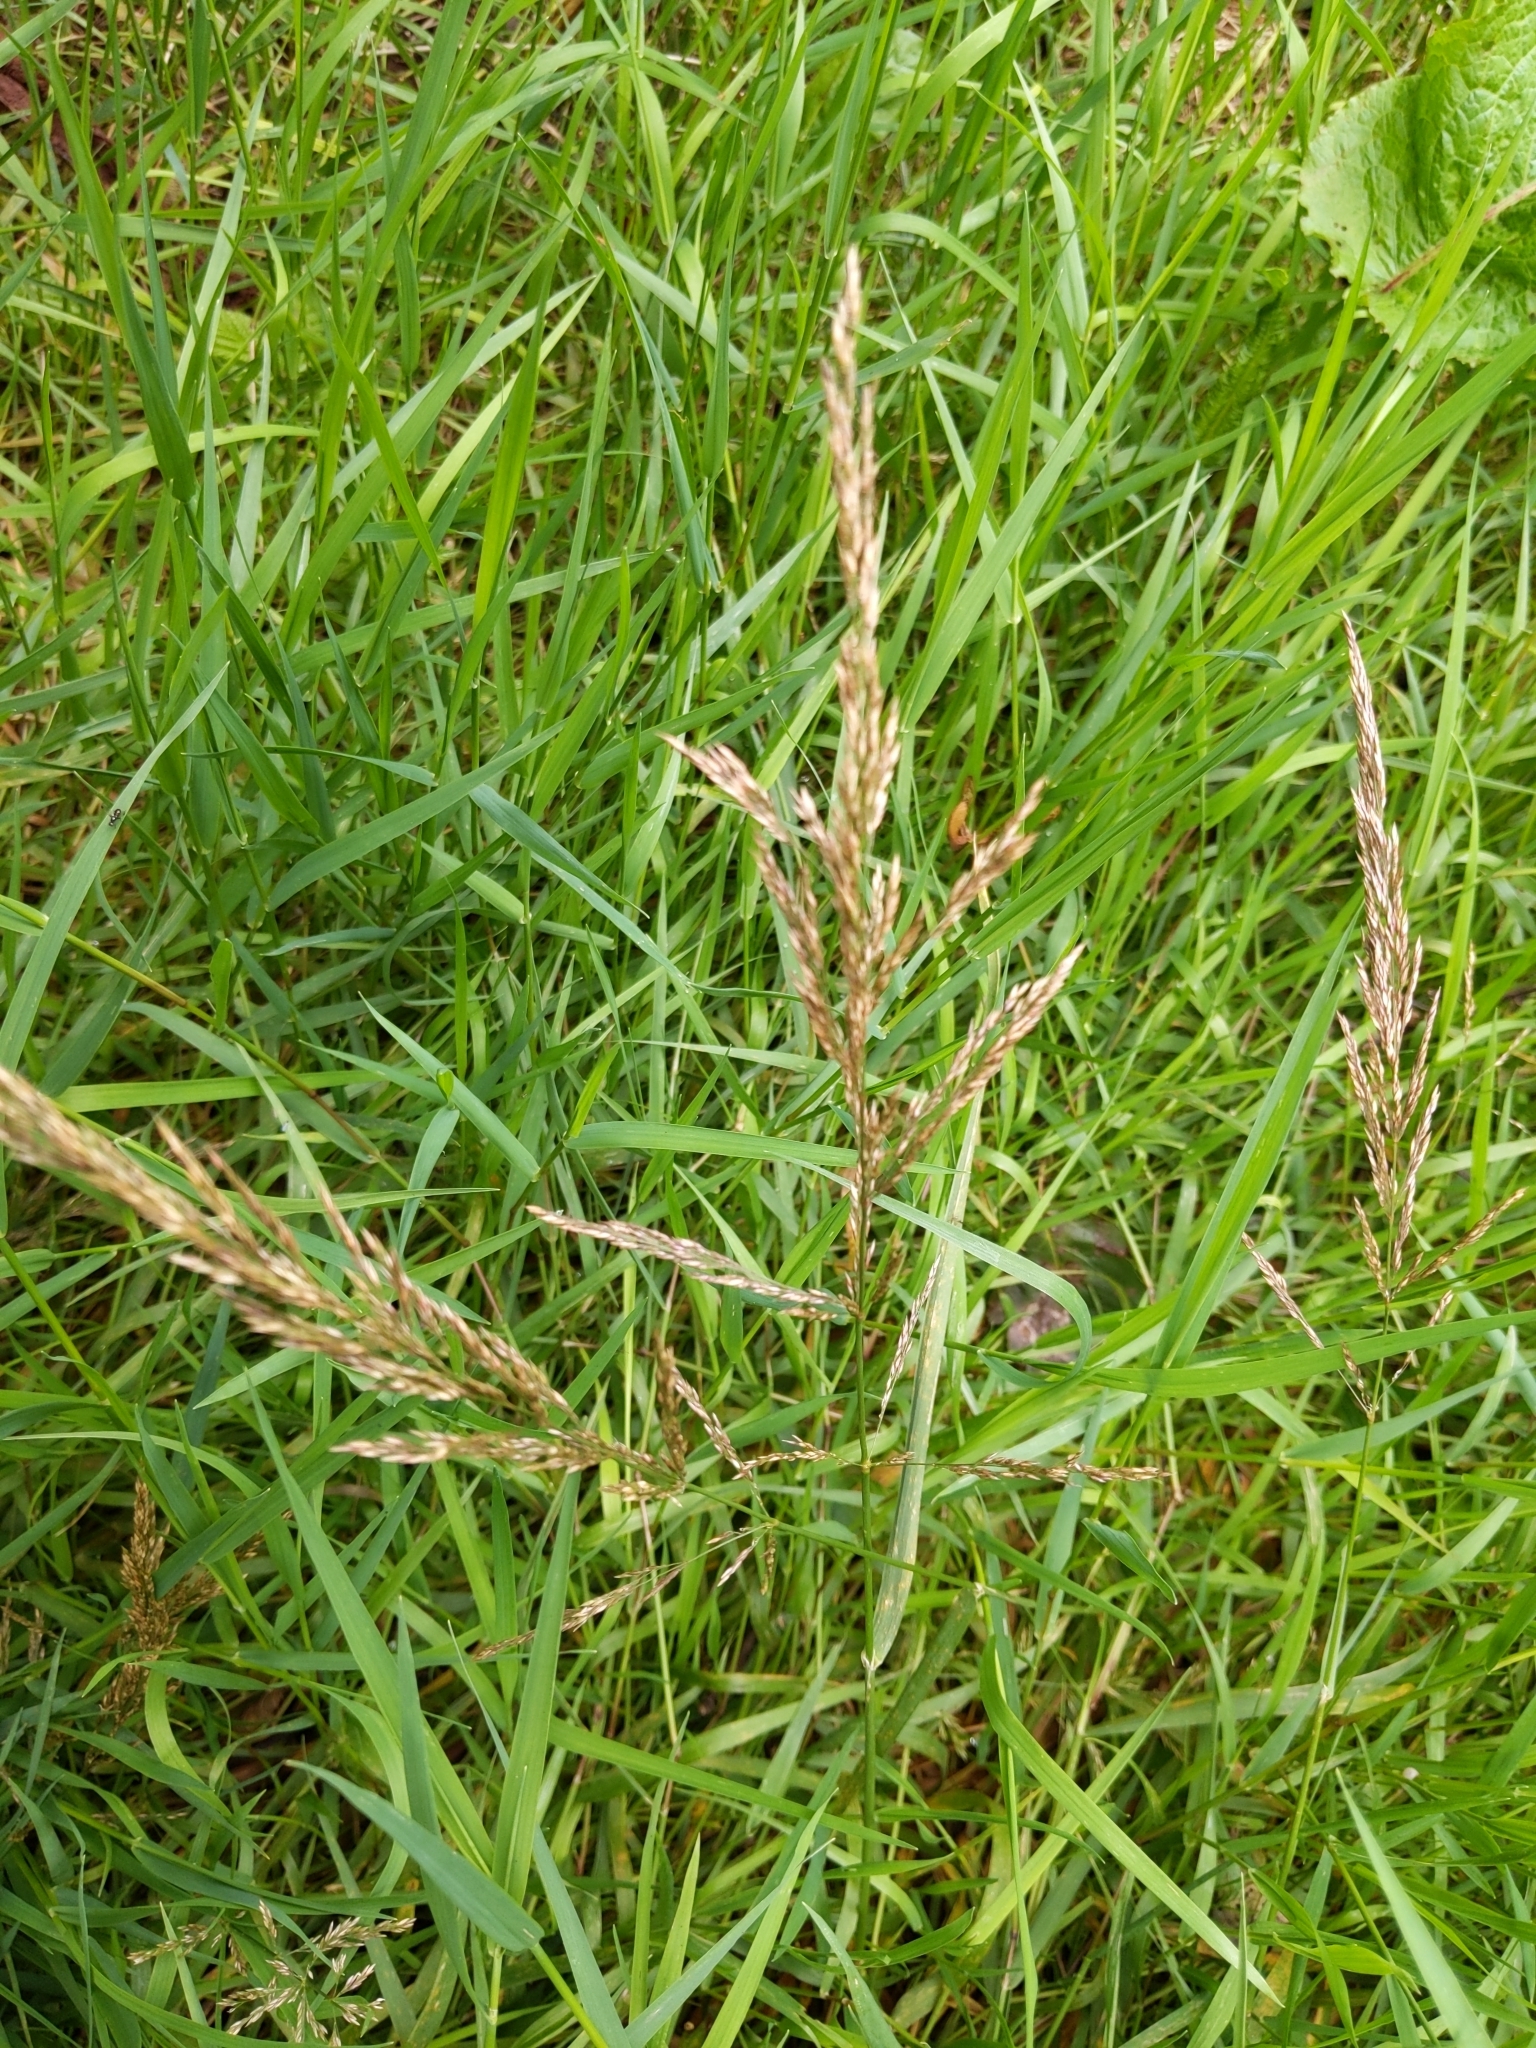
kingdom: Plantae
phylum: Tracheophyta
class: Liliopsida
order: Poales
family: Poaceae
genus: Agrostis
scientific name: Agrostis stolonifera
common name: Creeping bentgrass
